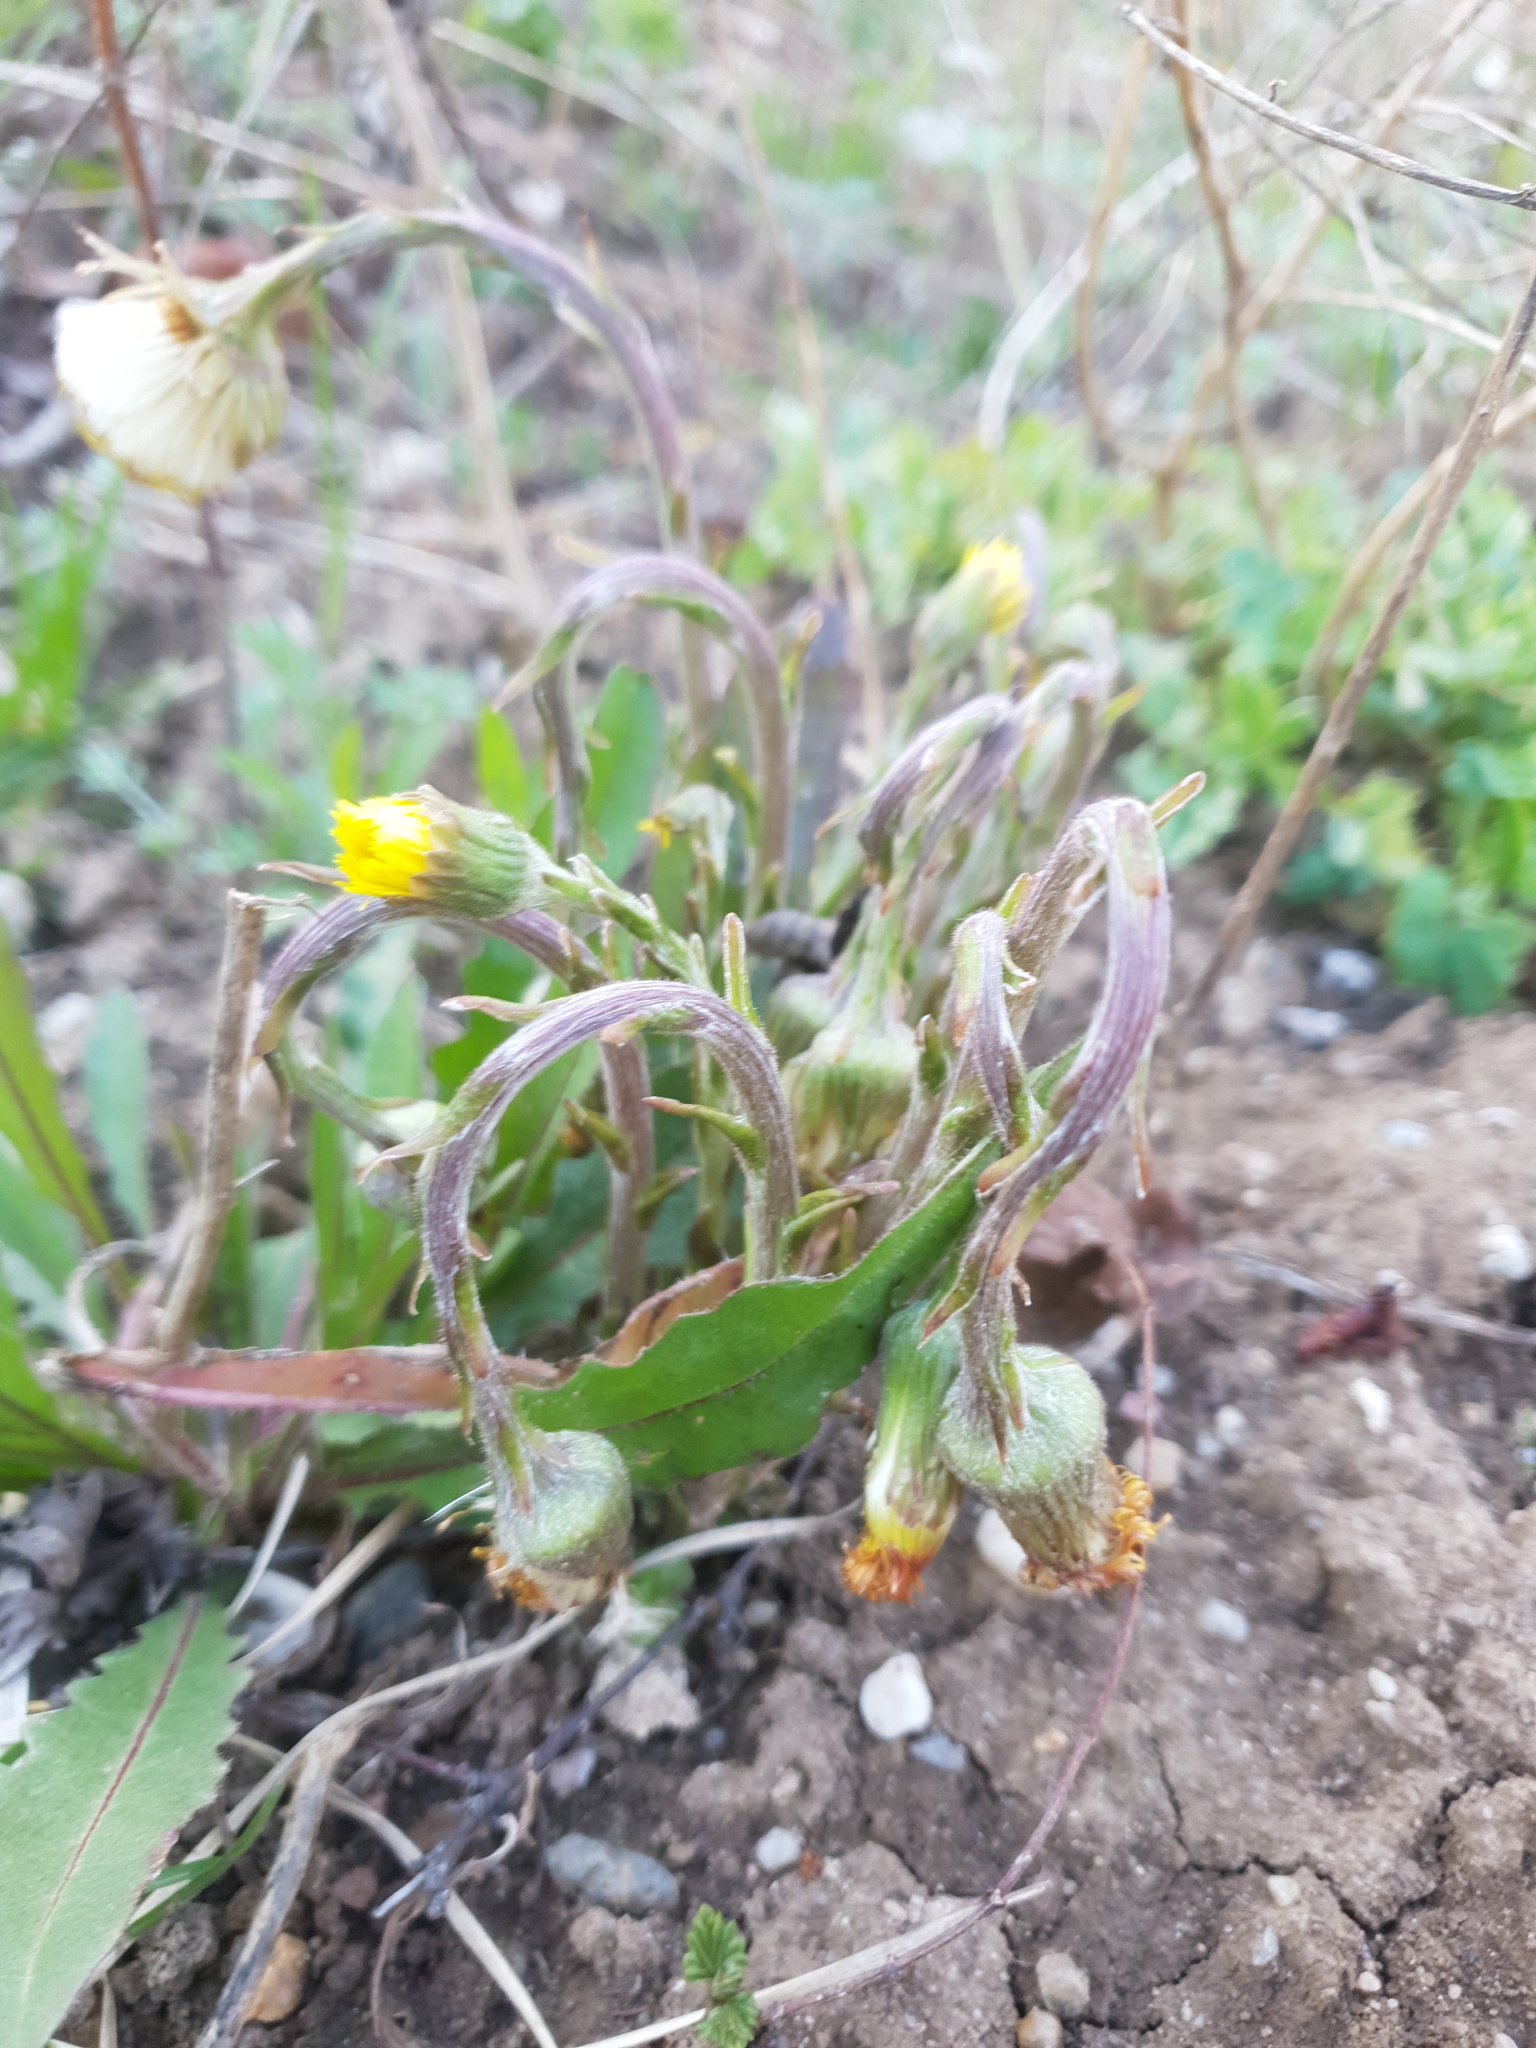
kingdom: Plantae
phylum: Tracheophyta
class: Magnoliopsida
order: Asterales
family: Asteraceae
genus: Tussilago
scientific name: Tussilago farfara
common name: Coltsfoot
